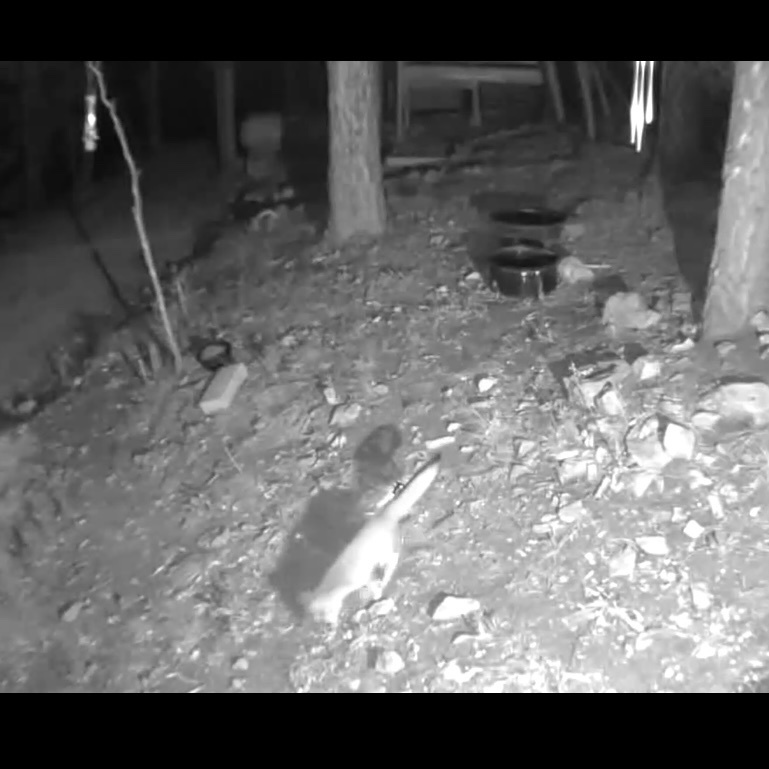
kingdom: Animalia
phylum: Chordata
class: Mammalia
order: Carnivora
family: Canidae
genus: Urocyon
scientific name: Urocyon cinereoargenteus
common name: Gray fox
